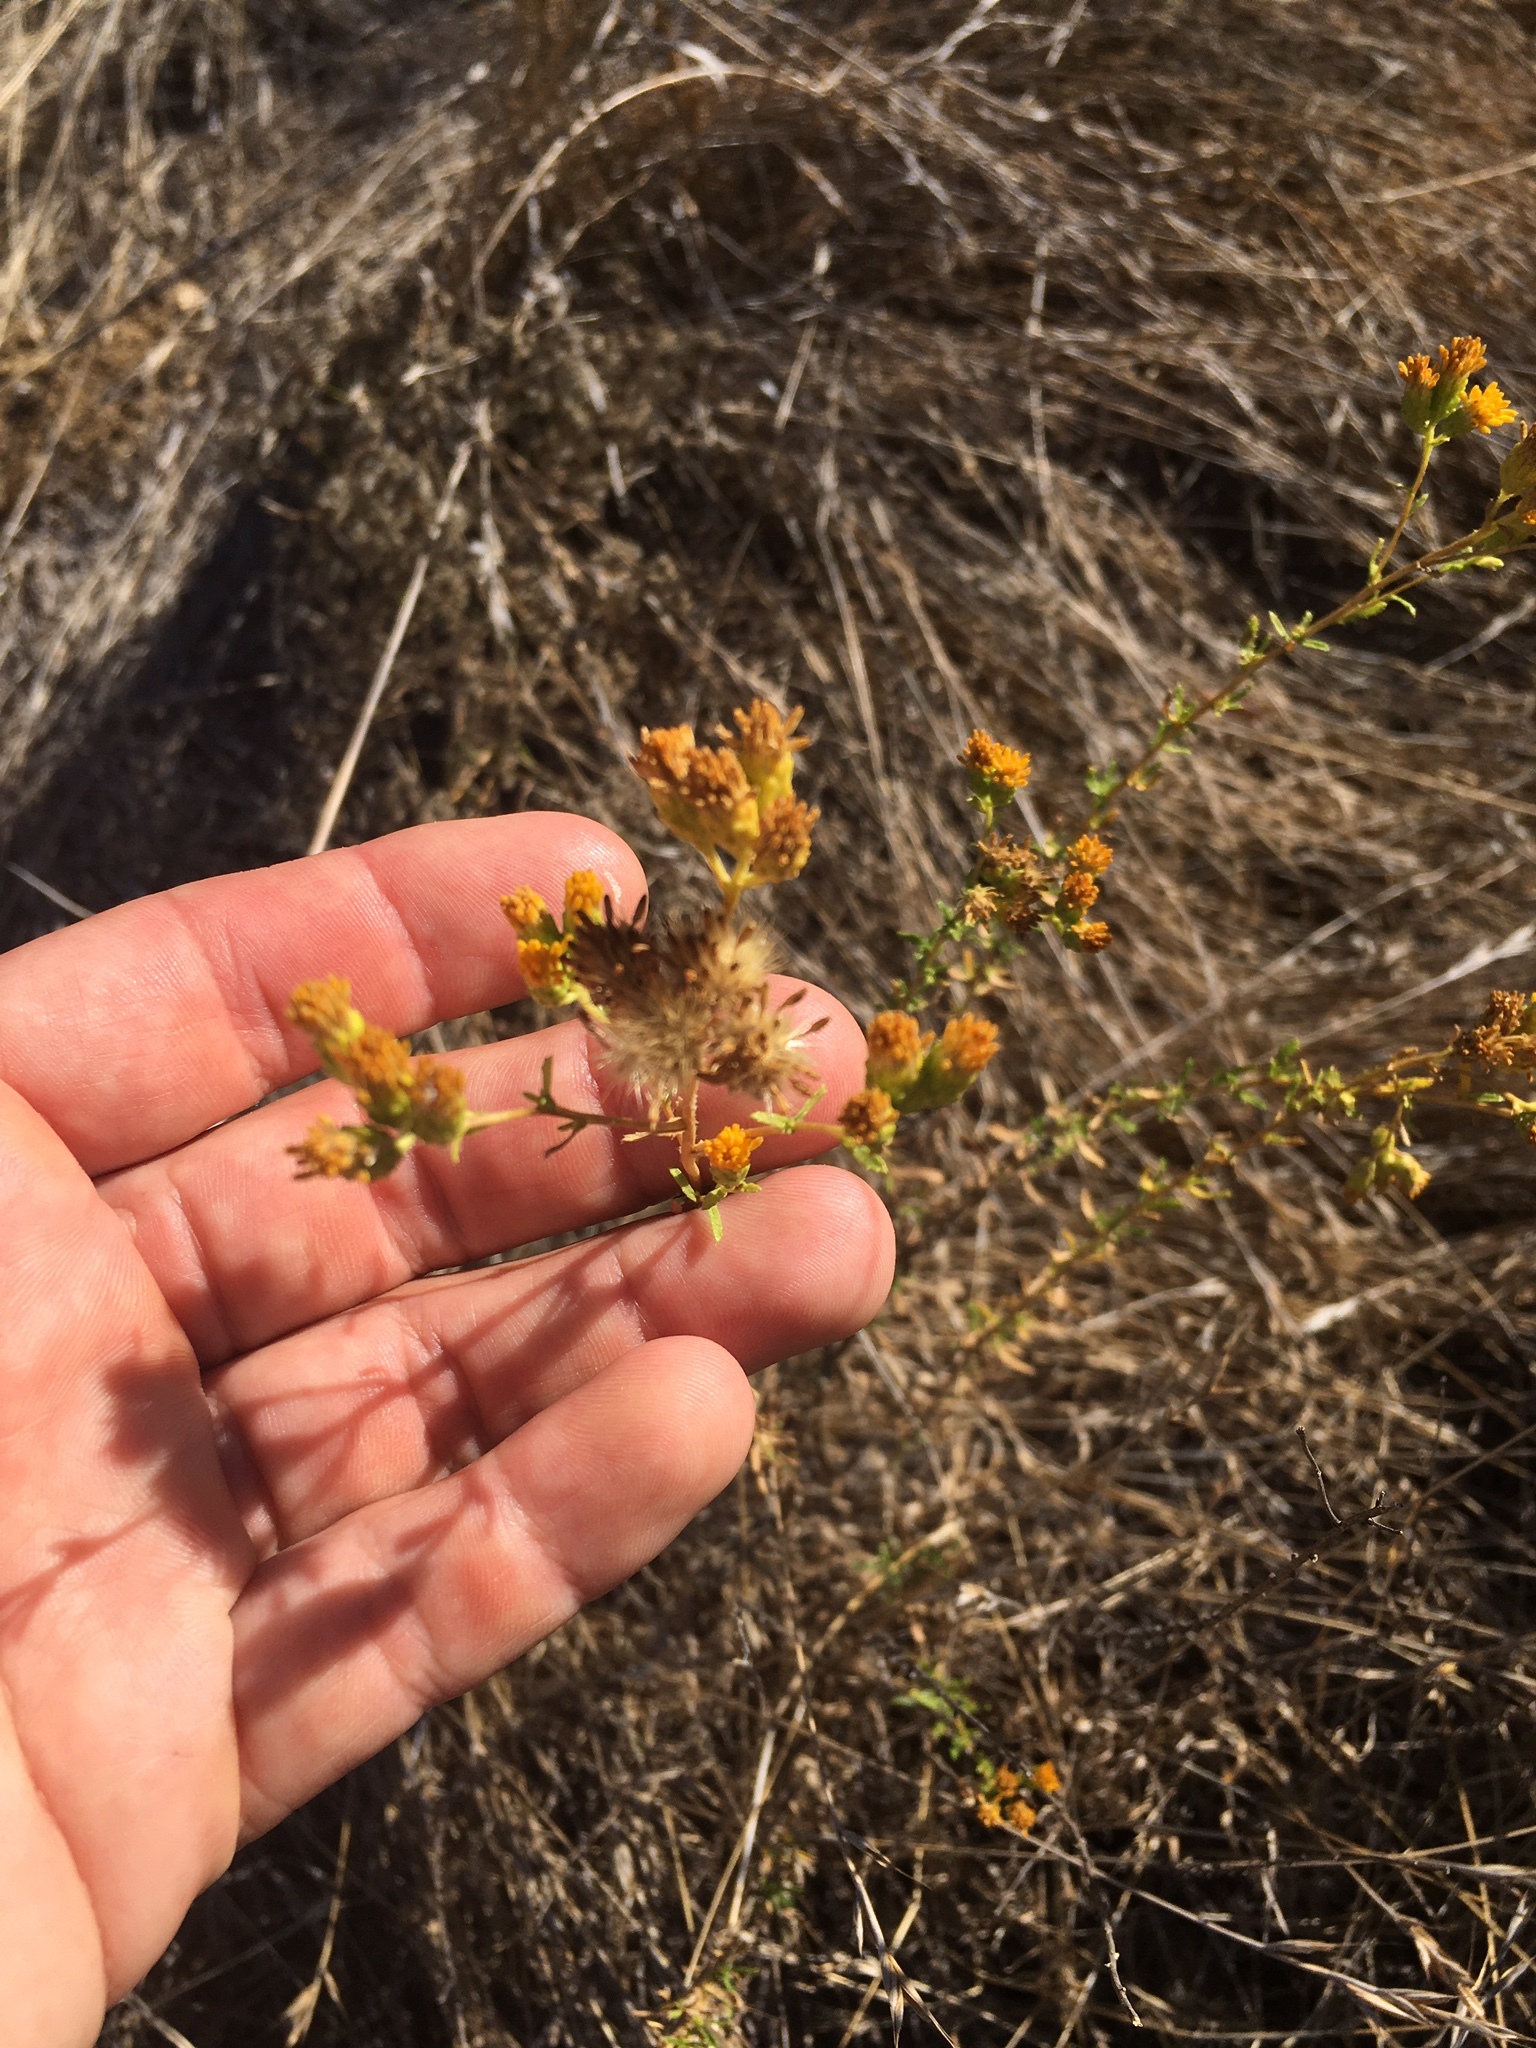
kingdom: Plantae
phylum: Tracheophyta
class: Magnoliopsida
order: Asterales
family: Asteraceae
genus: Isocoma
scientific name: Isocoma menziesii
